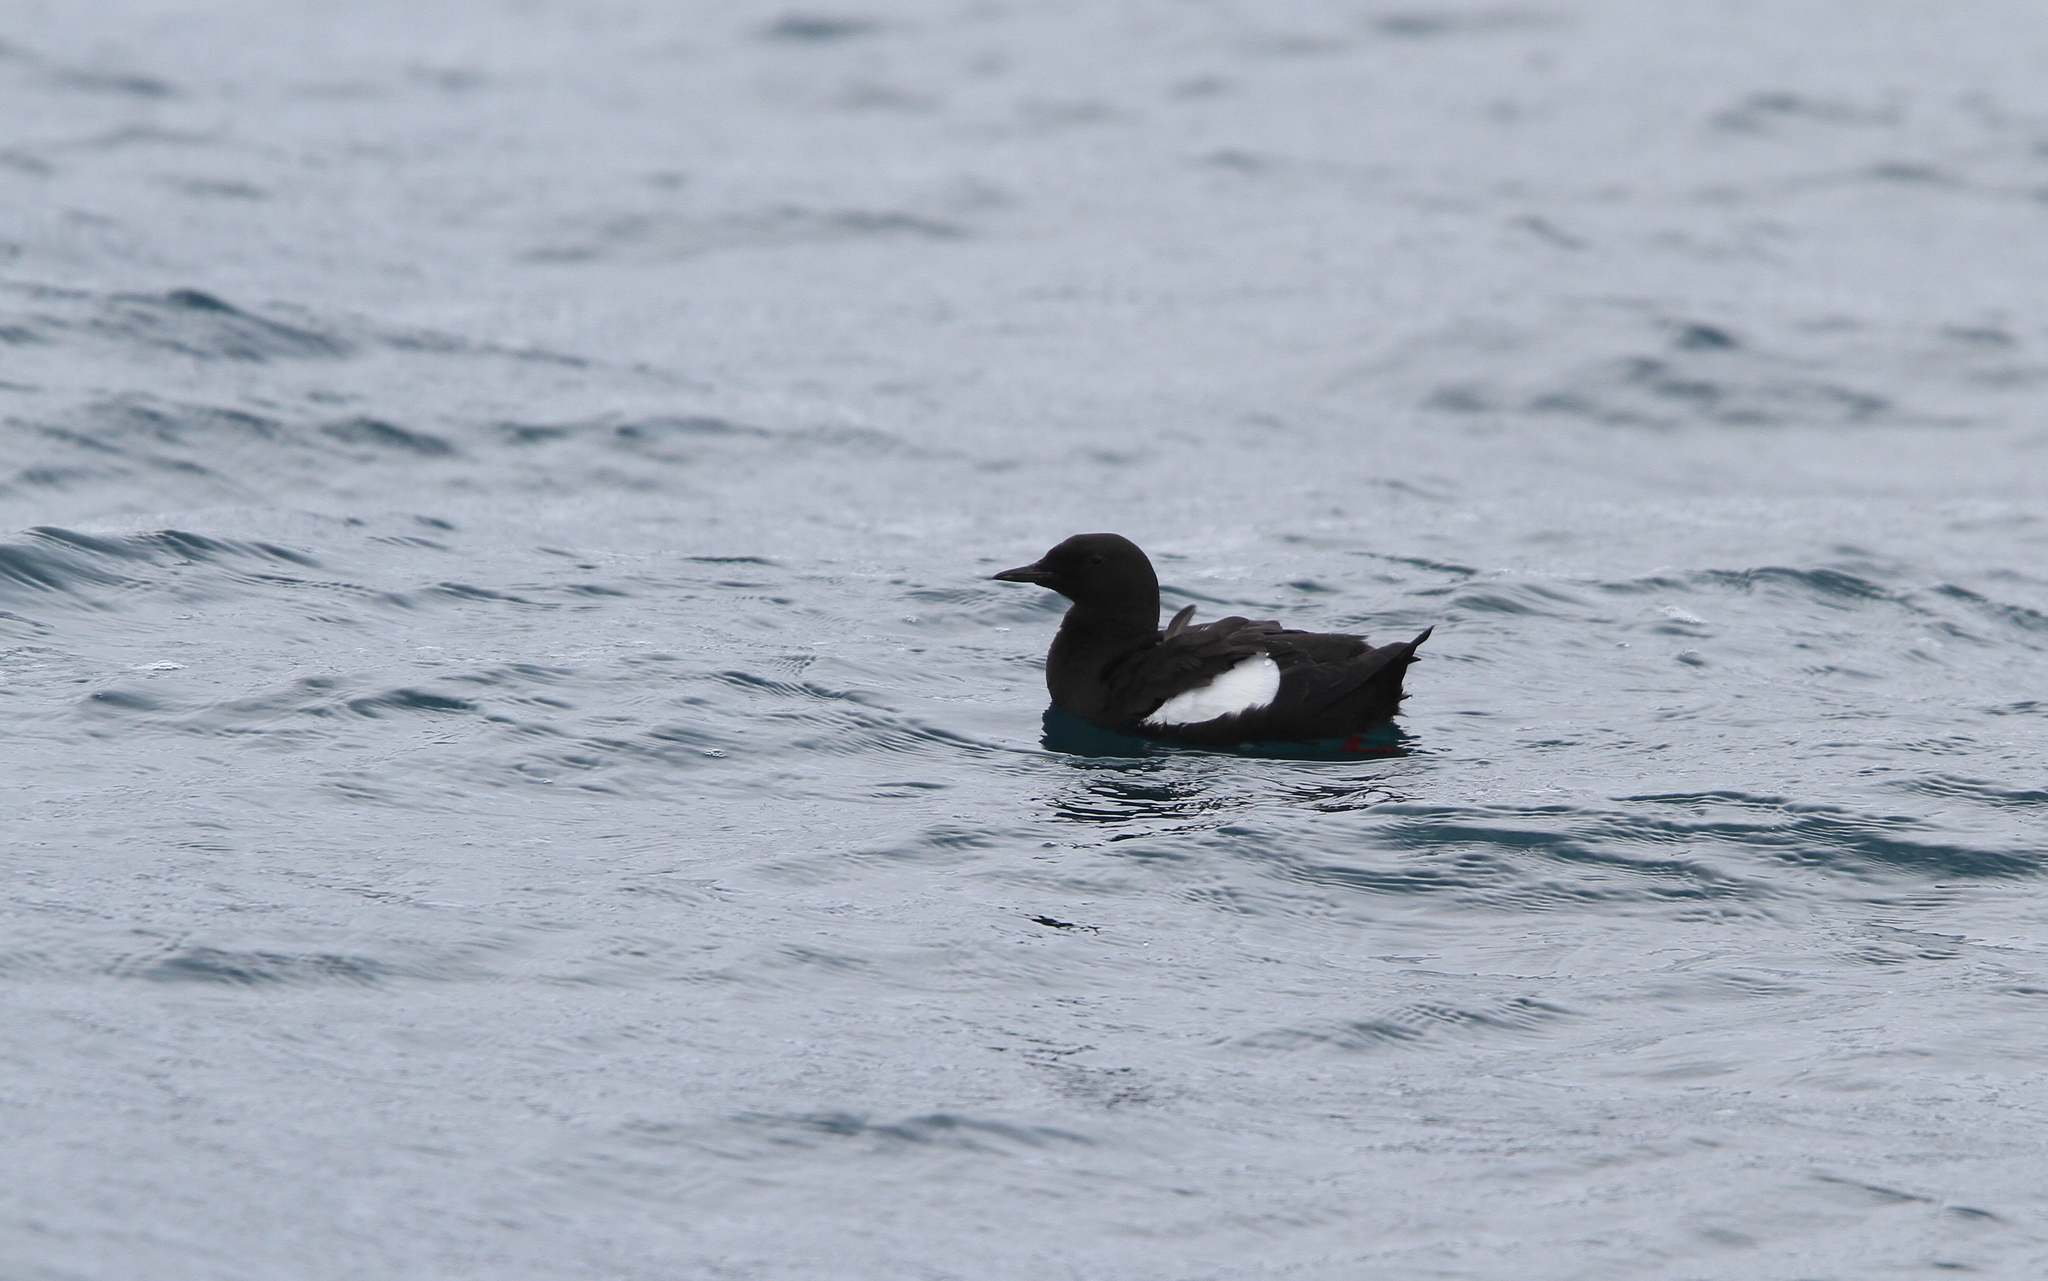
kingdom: Animalia
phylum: Chordata
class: Aves
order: Charadriiformes
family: Alcidae
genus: Cepphus
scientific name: Cepphus grylle
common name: Black guillemot
